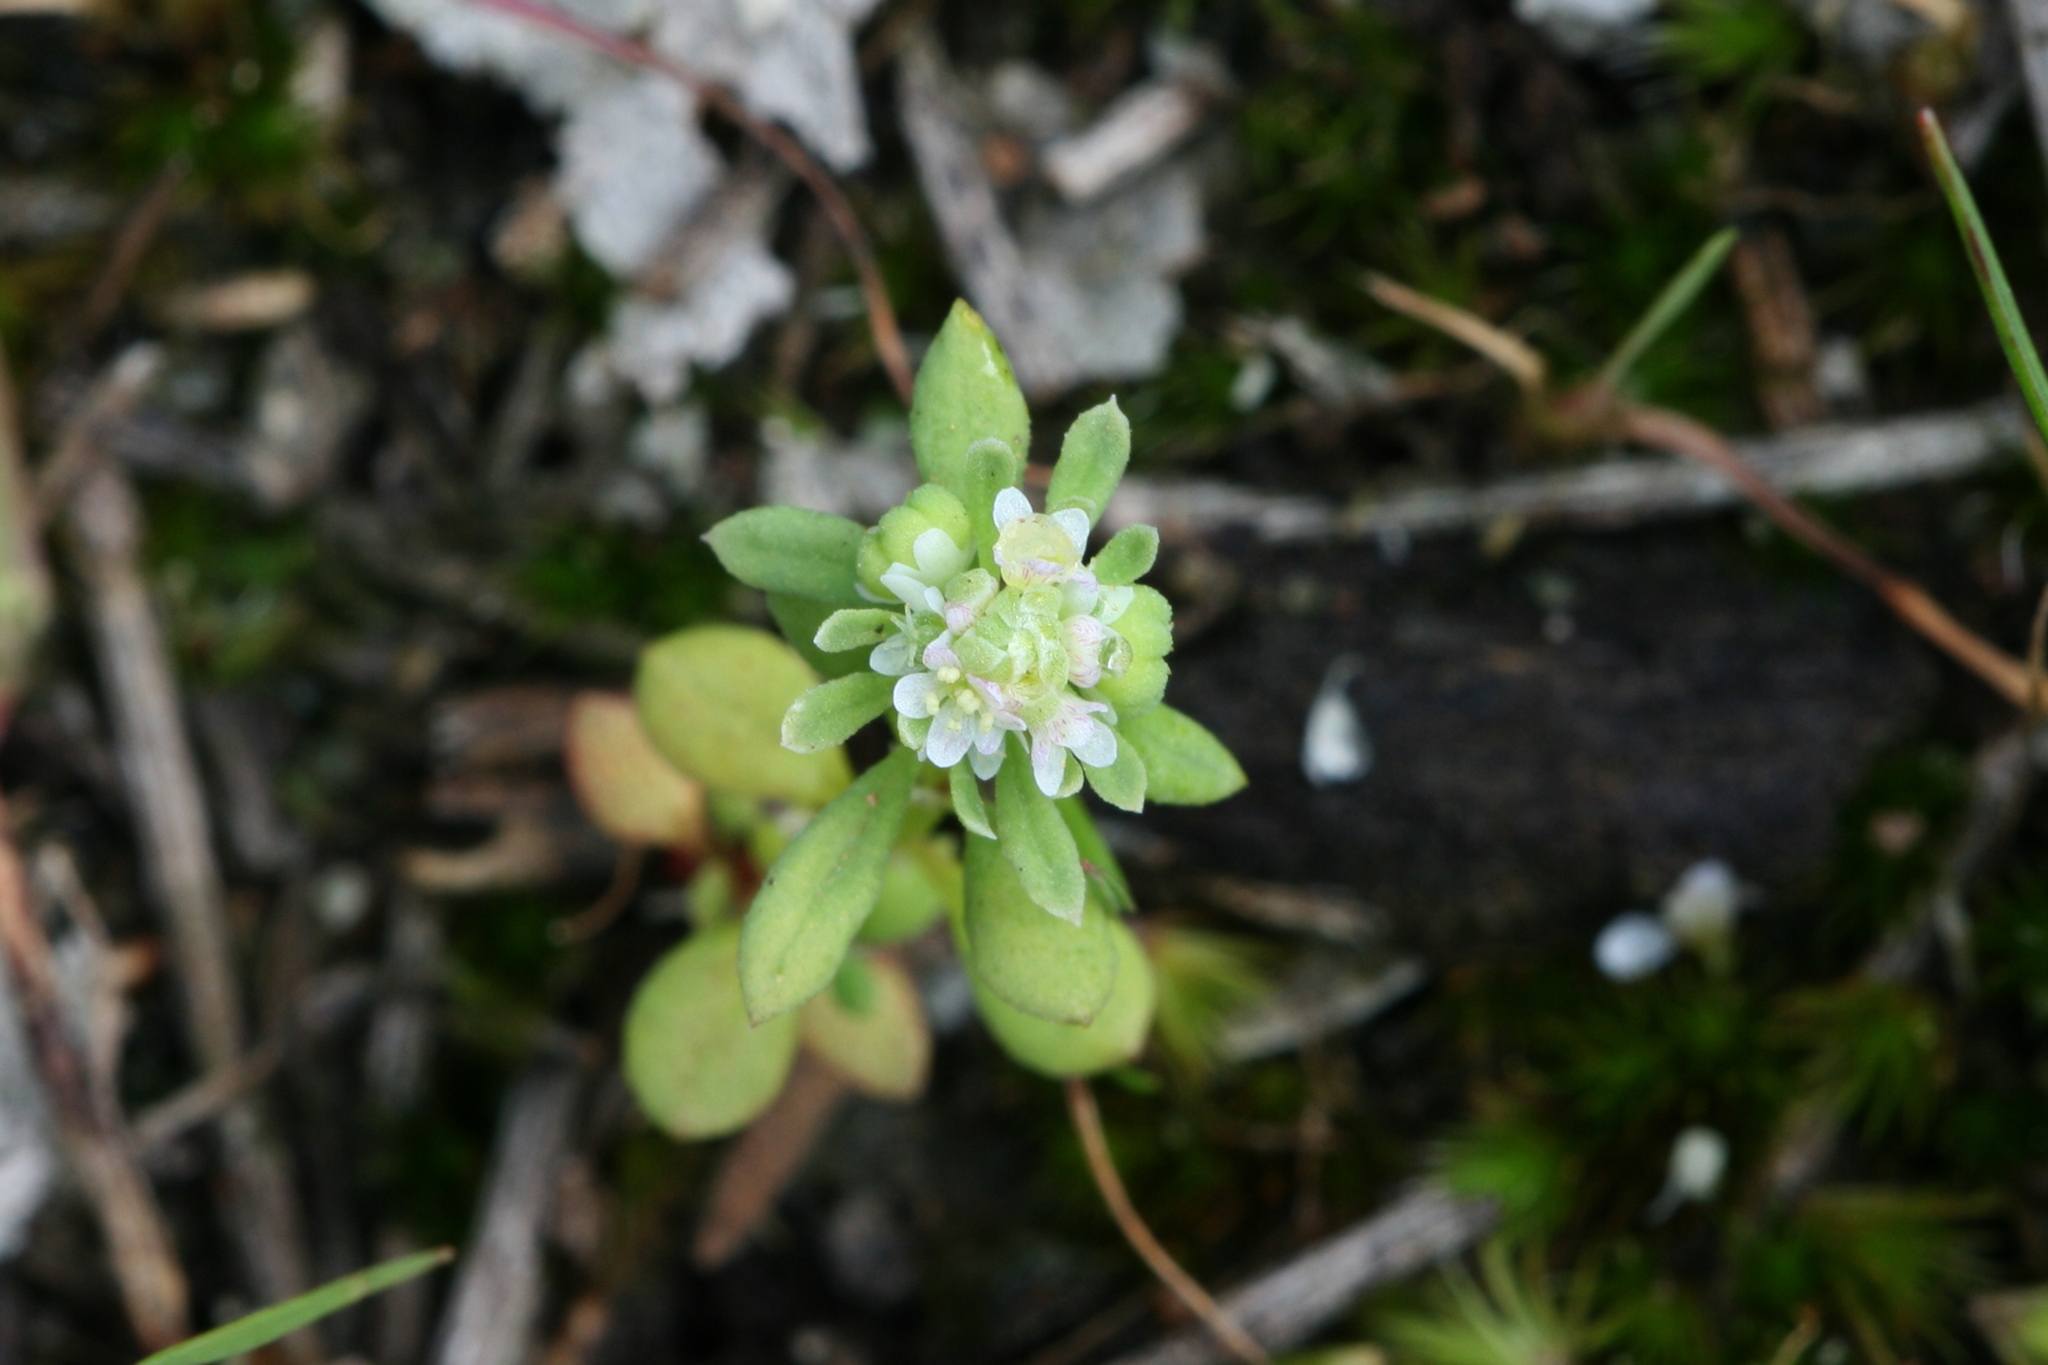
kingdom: Plantae
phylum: Tracheophyta
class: Magnoliopsida
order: Malpighiales
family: Phyllanthaceae
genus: Poranthera
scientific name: Poranthera microphylla
